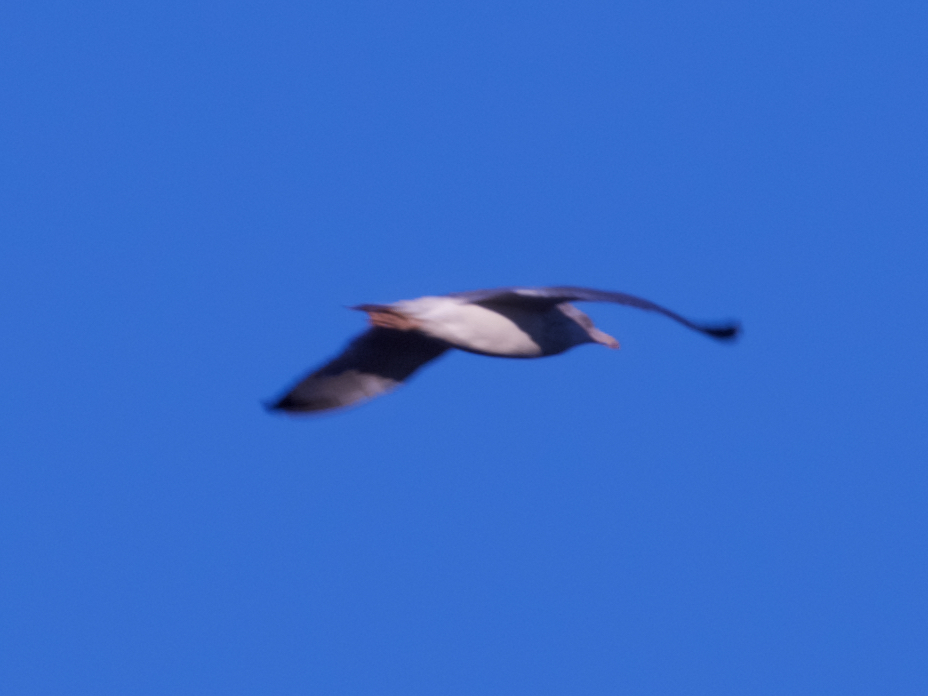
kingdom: Animalia
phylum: Chordata
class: Aves
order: Charadriiformes
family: Laridae
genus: Larus
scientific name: Larus argentatus
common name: Herring gull
